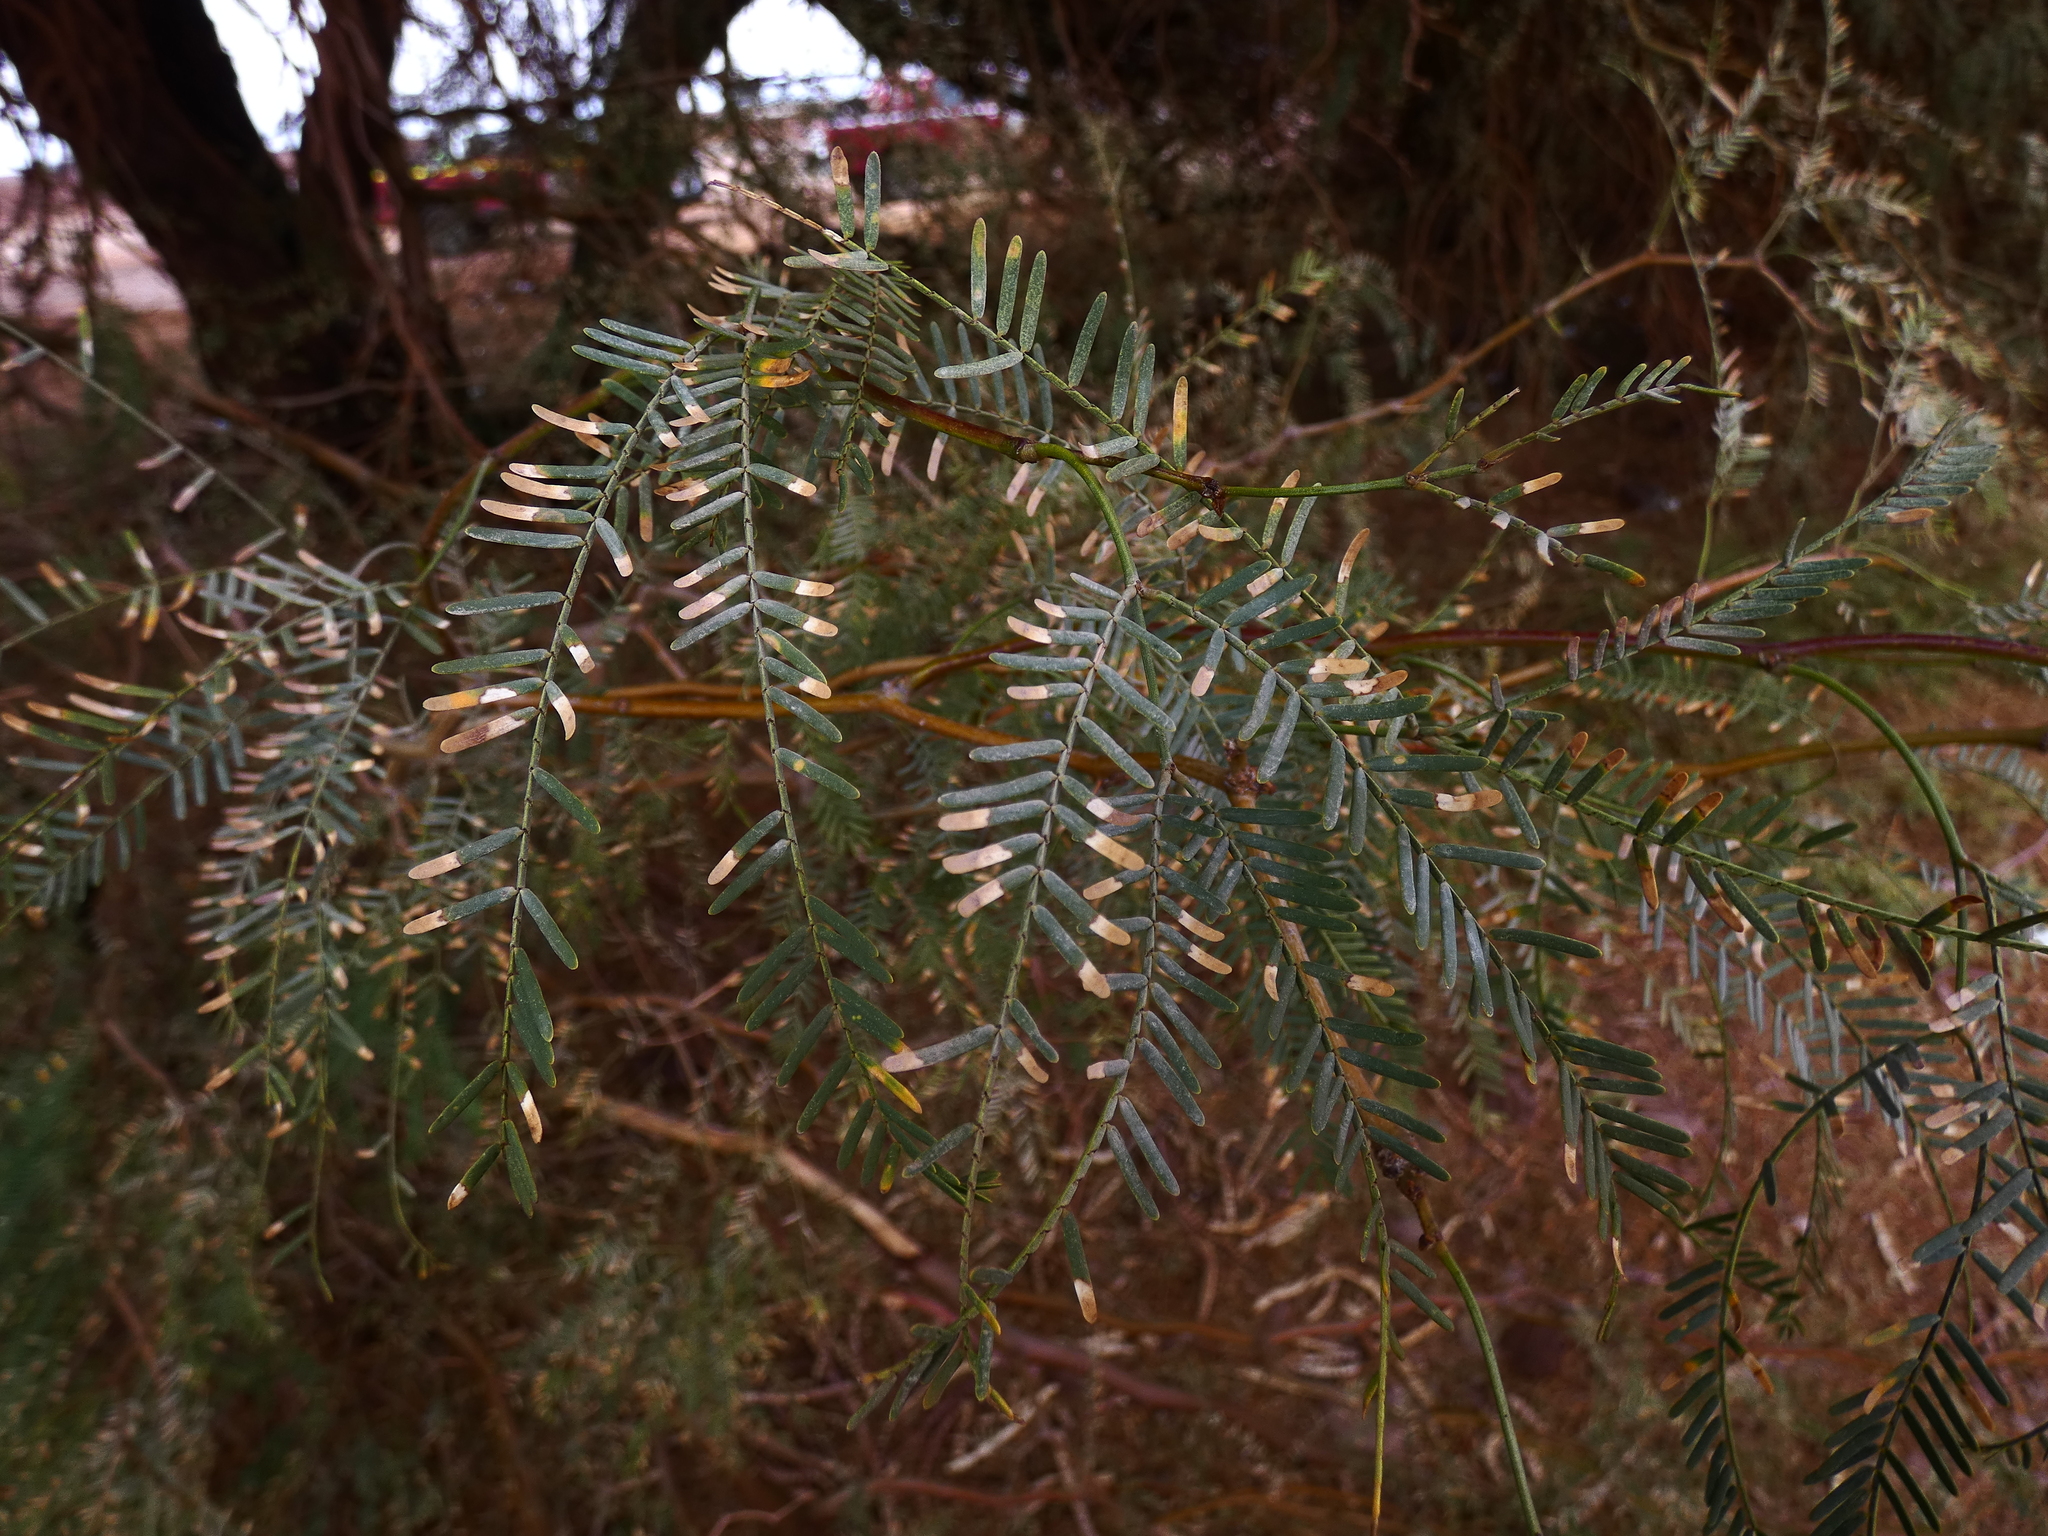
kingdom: Plantae
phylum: Tracheophyta
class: Magnoliopsida
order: Fabales
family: Fabaceae
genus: Prosopis
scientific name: Prosopis alba
